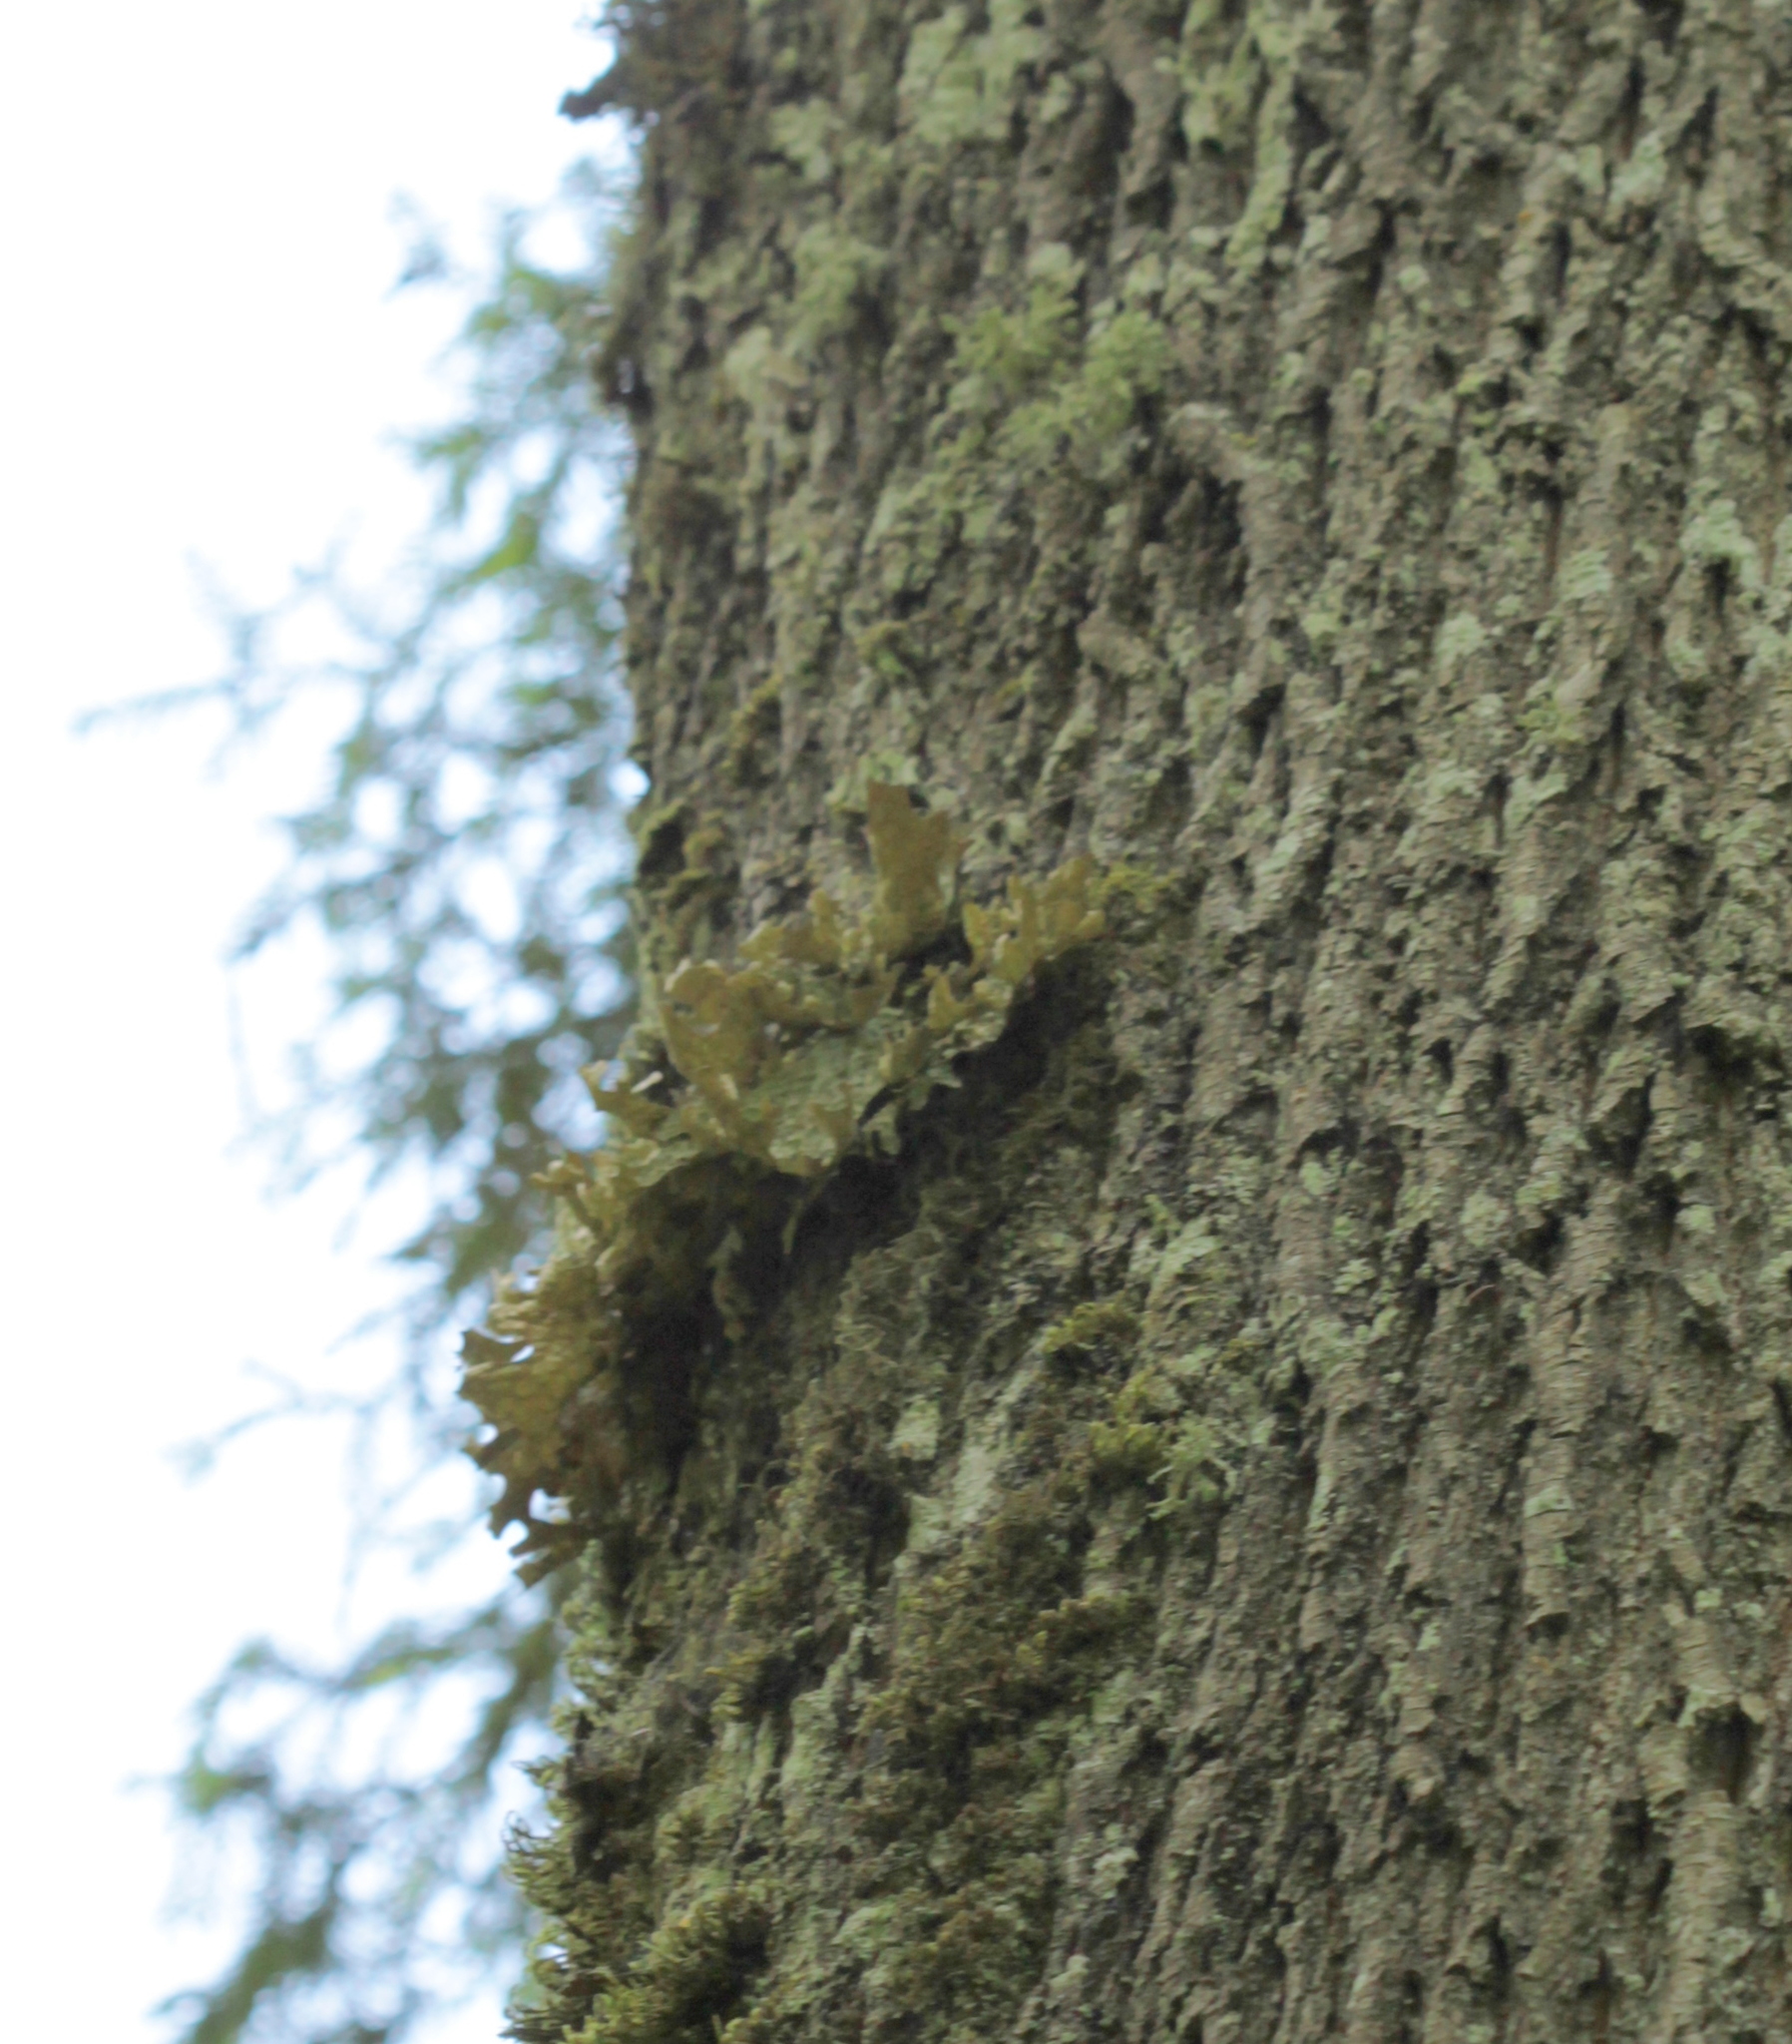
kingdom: Fungi
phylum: Ascomycota
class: Lecanoromycetes
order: Peltigerales
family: Lobariaceae
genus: Lobaria
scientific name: Lobaria pulmonaria
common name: Lungwort
